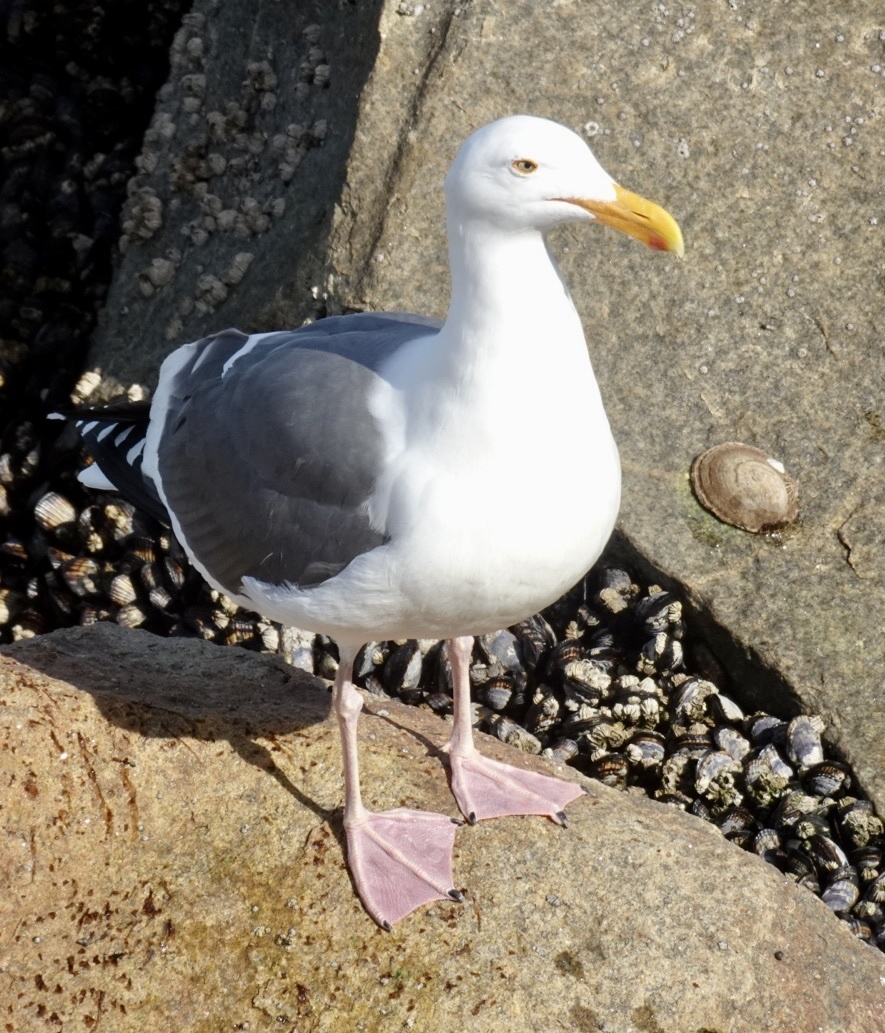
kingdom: Animalia
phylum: Chordata
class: Aves
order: Charadriiformes
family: Laridae
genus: Larus
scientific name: Larus occidentalis
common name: Western gull
